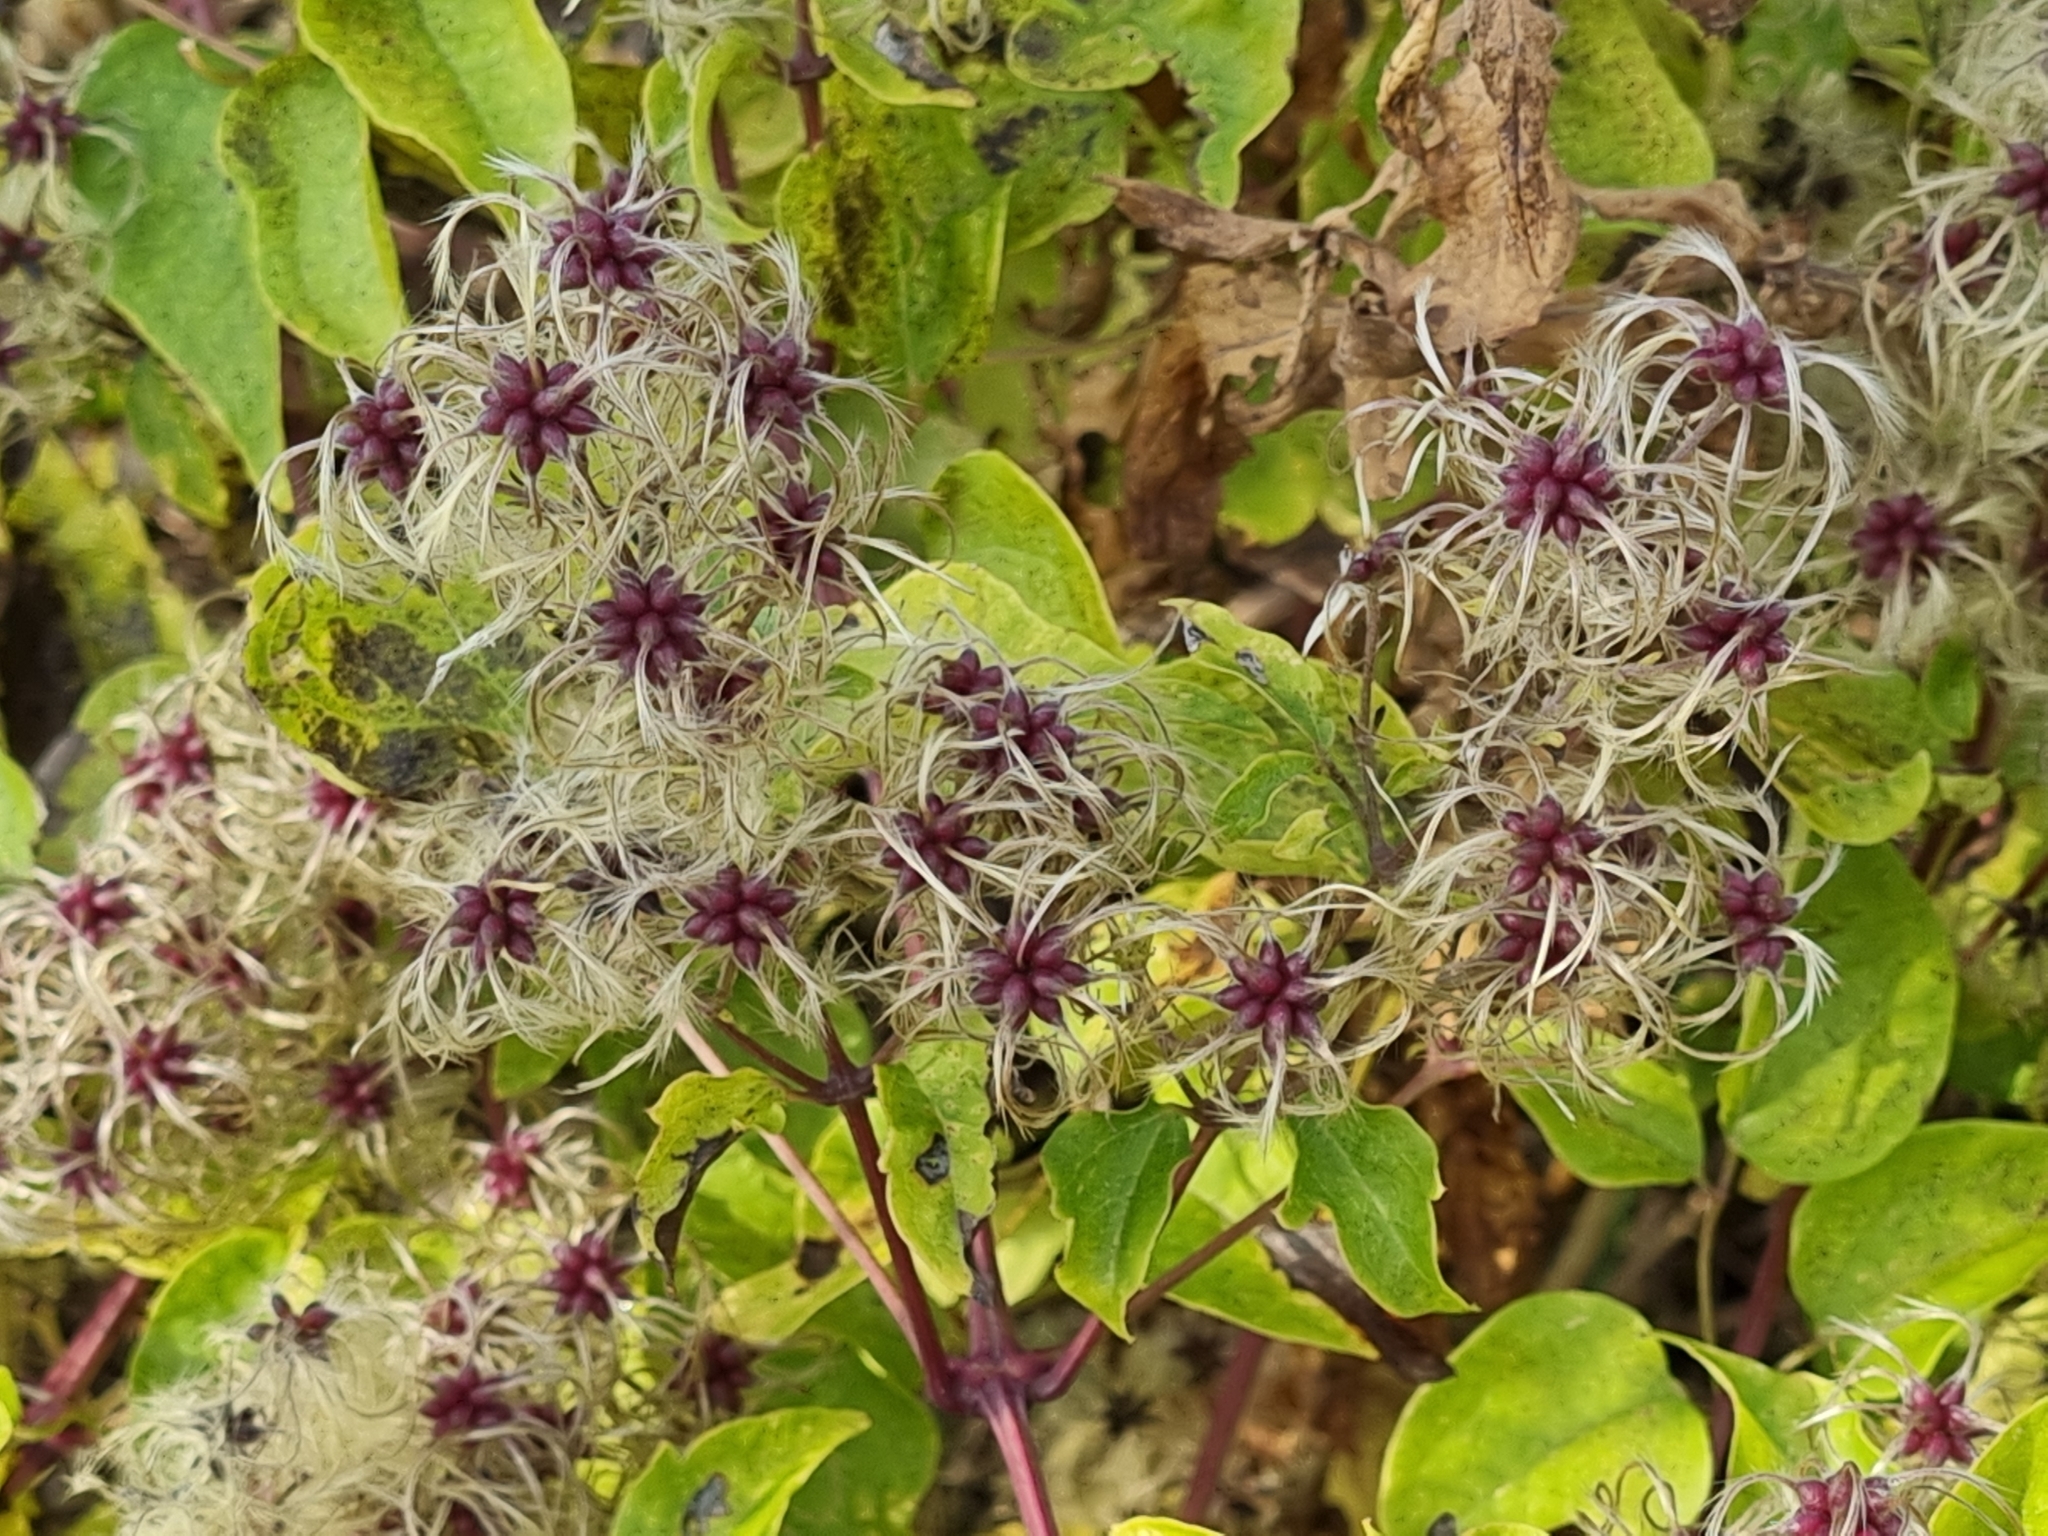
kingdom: Plantae
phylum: Tracheophyta
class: Magnoliopsida
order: Ranunculales
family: Ranunculaceae
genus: Clematis
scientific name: Clematis vitalba
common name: Evergreen clematis
